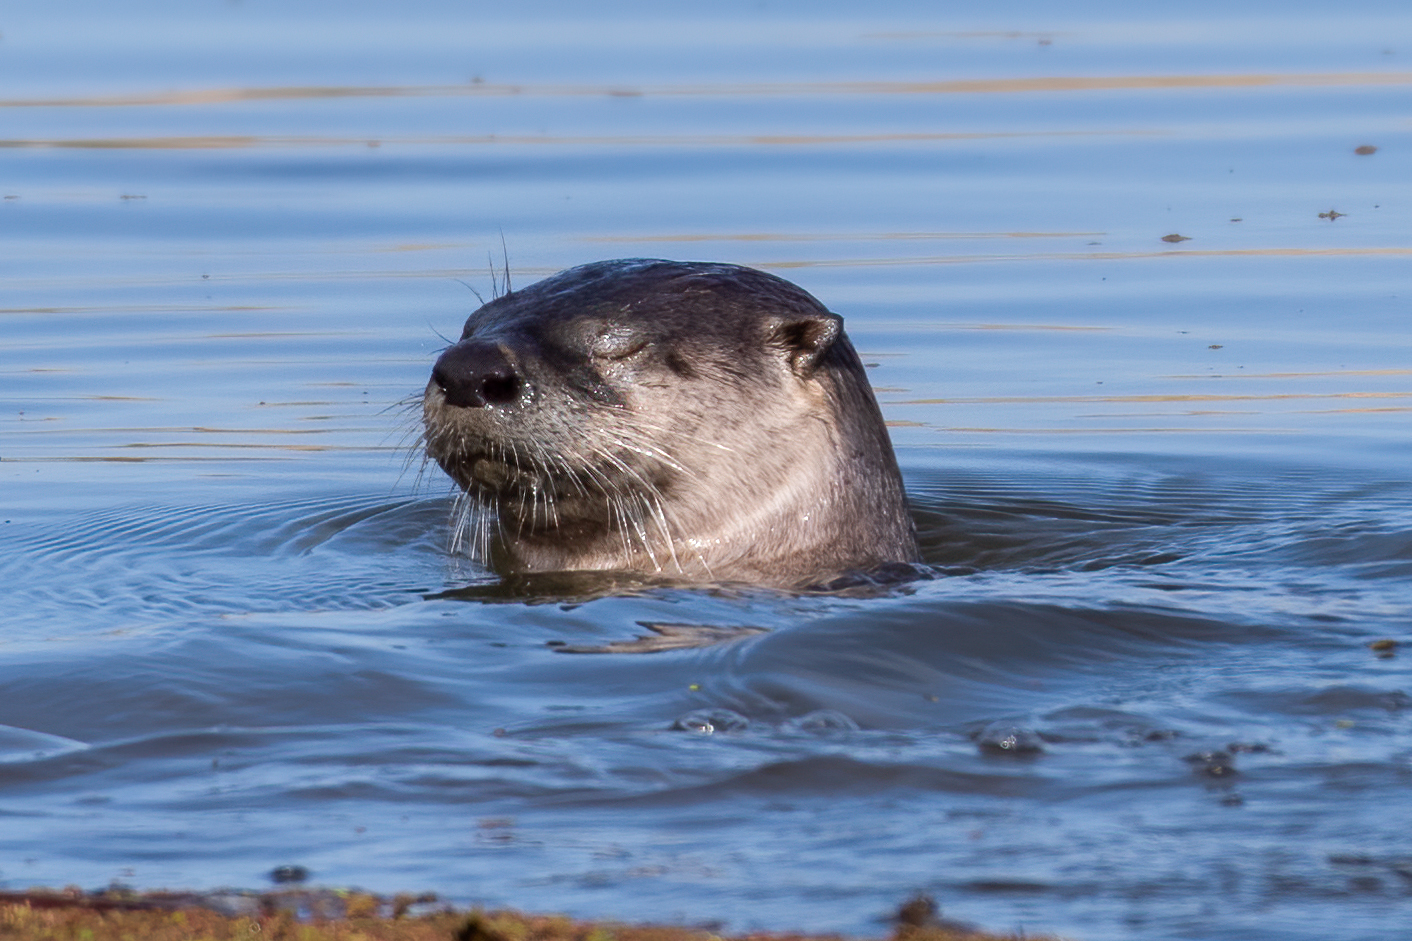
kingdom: Animalia
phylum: Chordata
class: Mammalia
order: Carnivora
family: Mustelidae
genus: Lontra
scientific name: Lontra canadensis
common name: North american river otter
